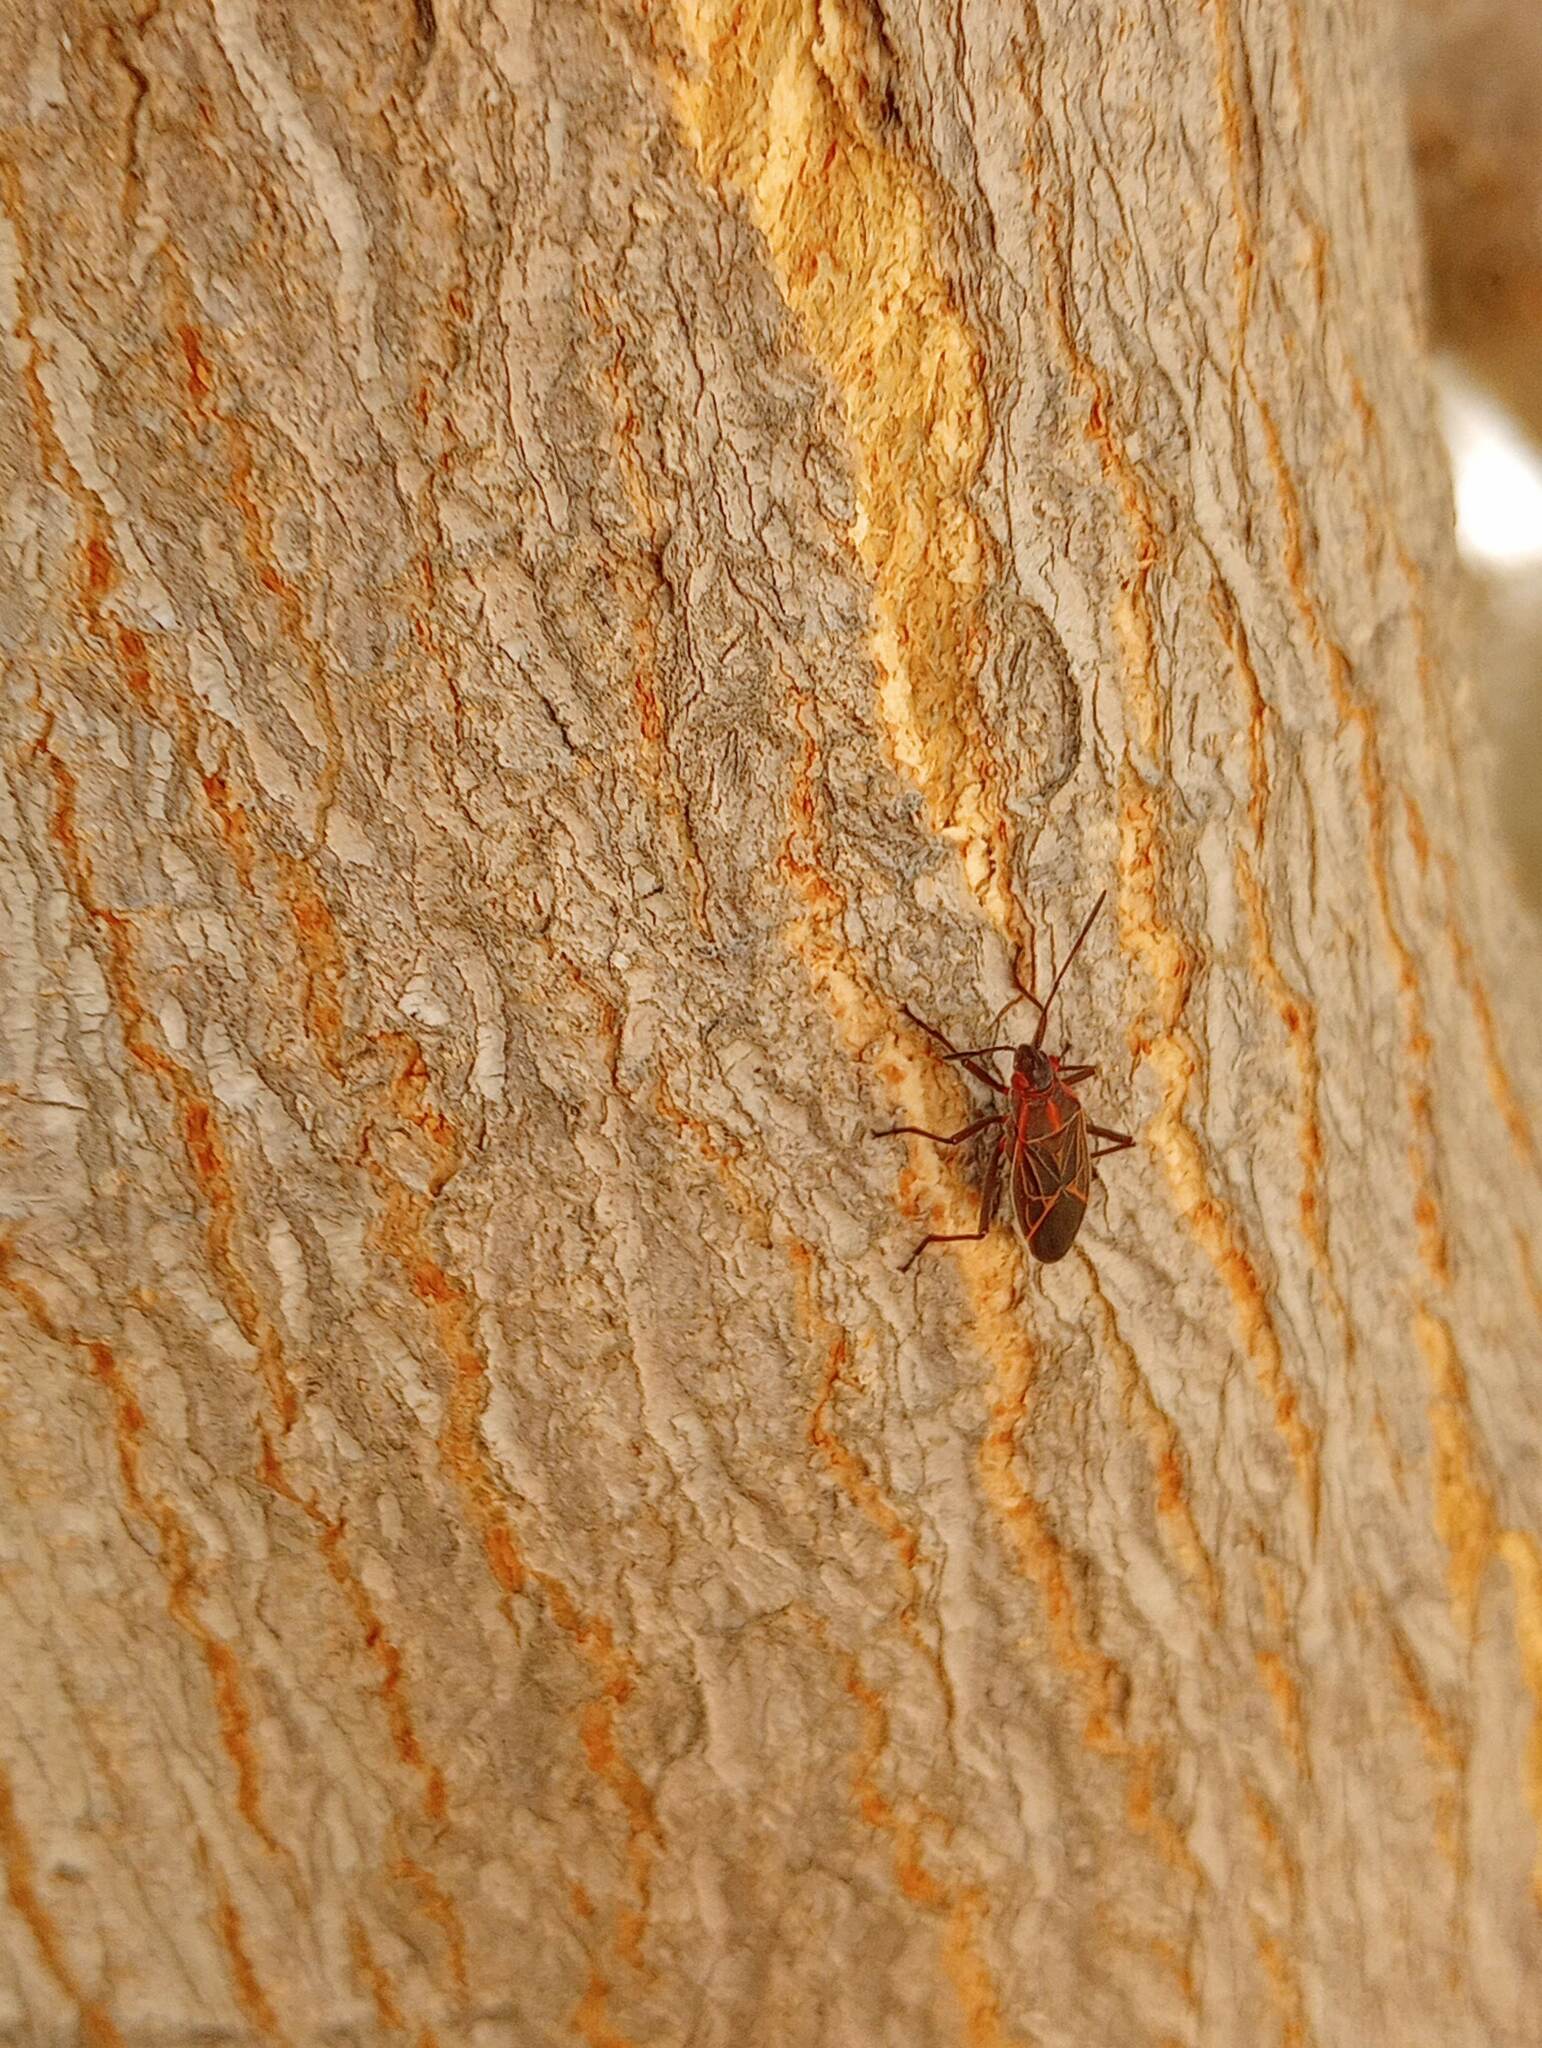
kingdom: Animalia
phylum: Arthropoda
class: Insecta
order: Hemiptera
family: Rhopalidae
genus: Boisea
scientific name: Boisea rubrolineata
